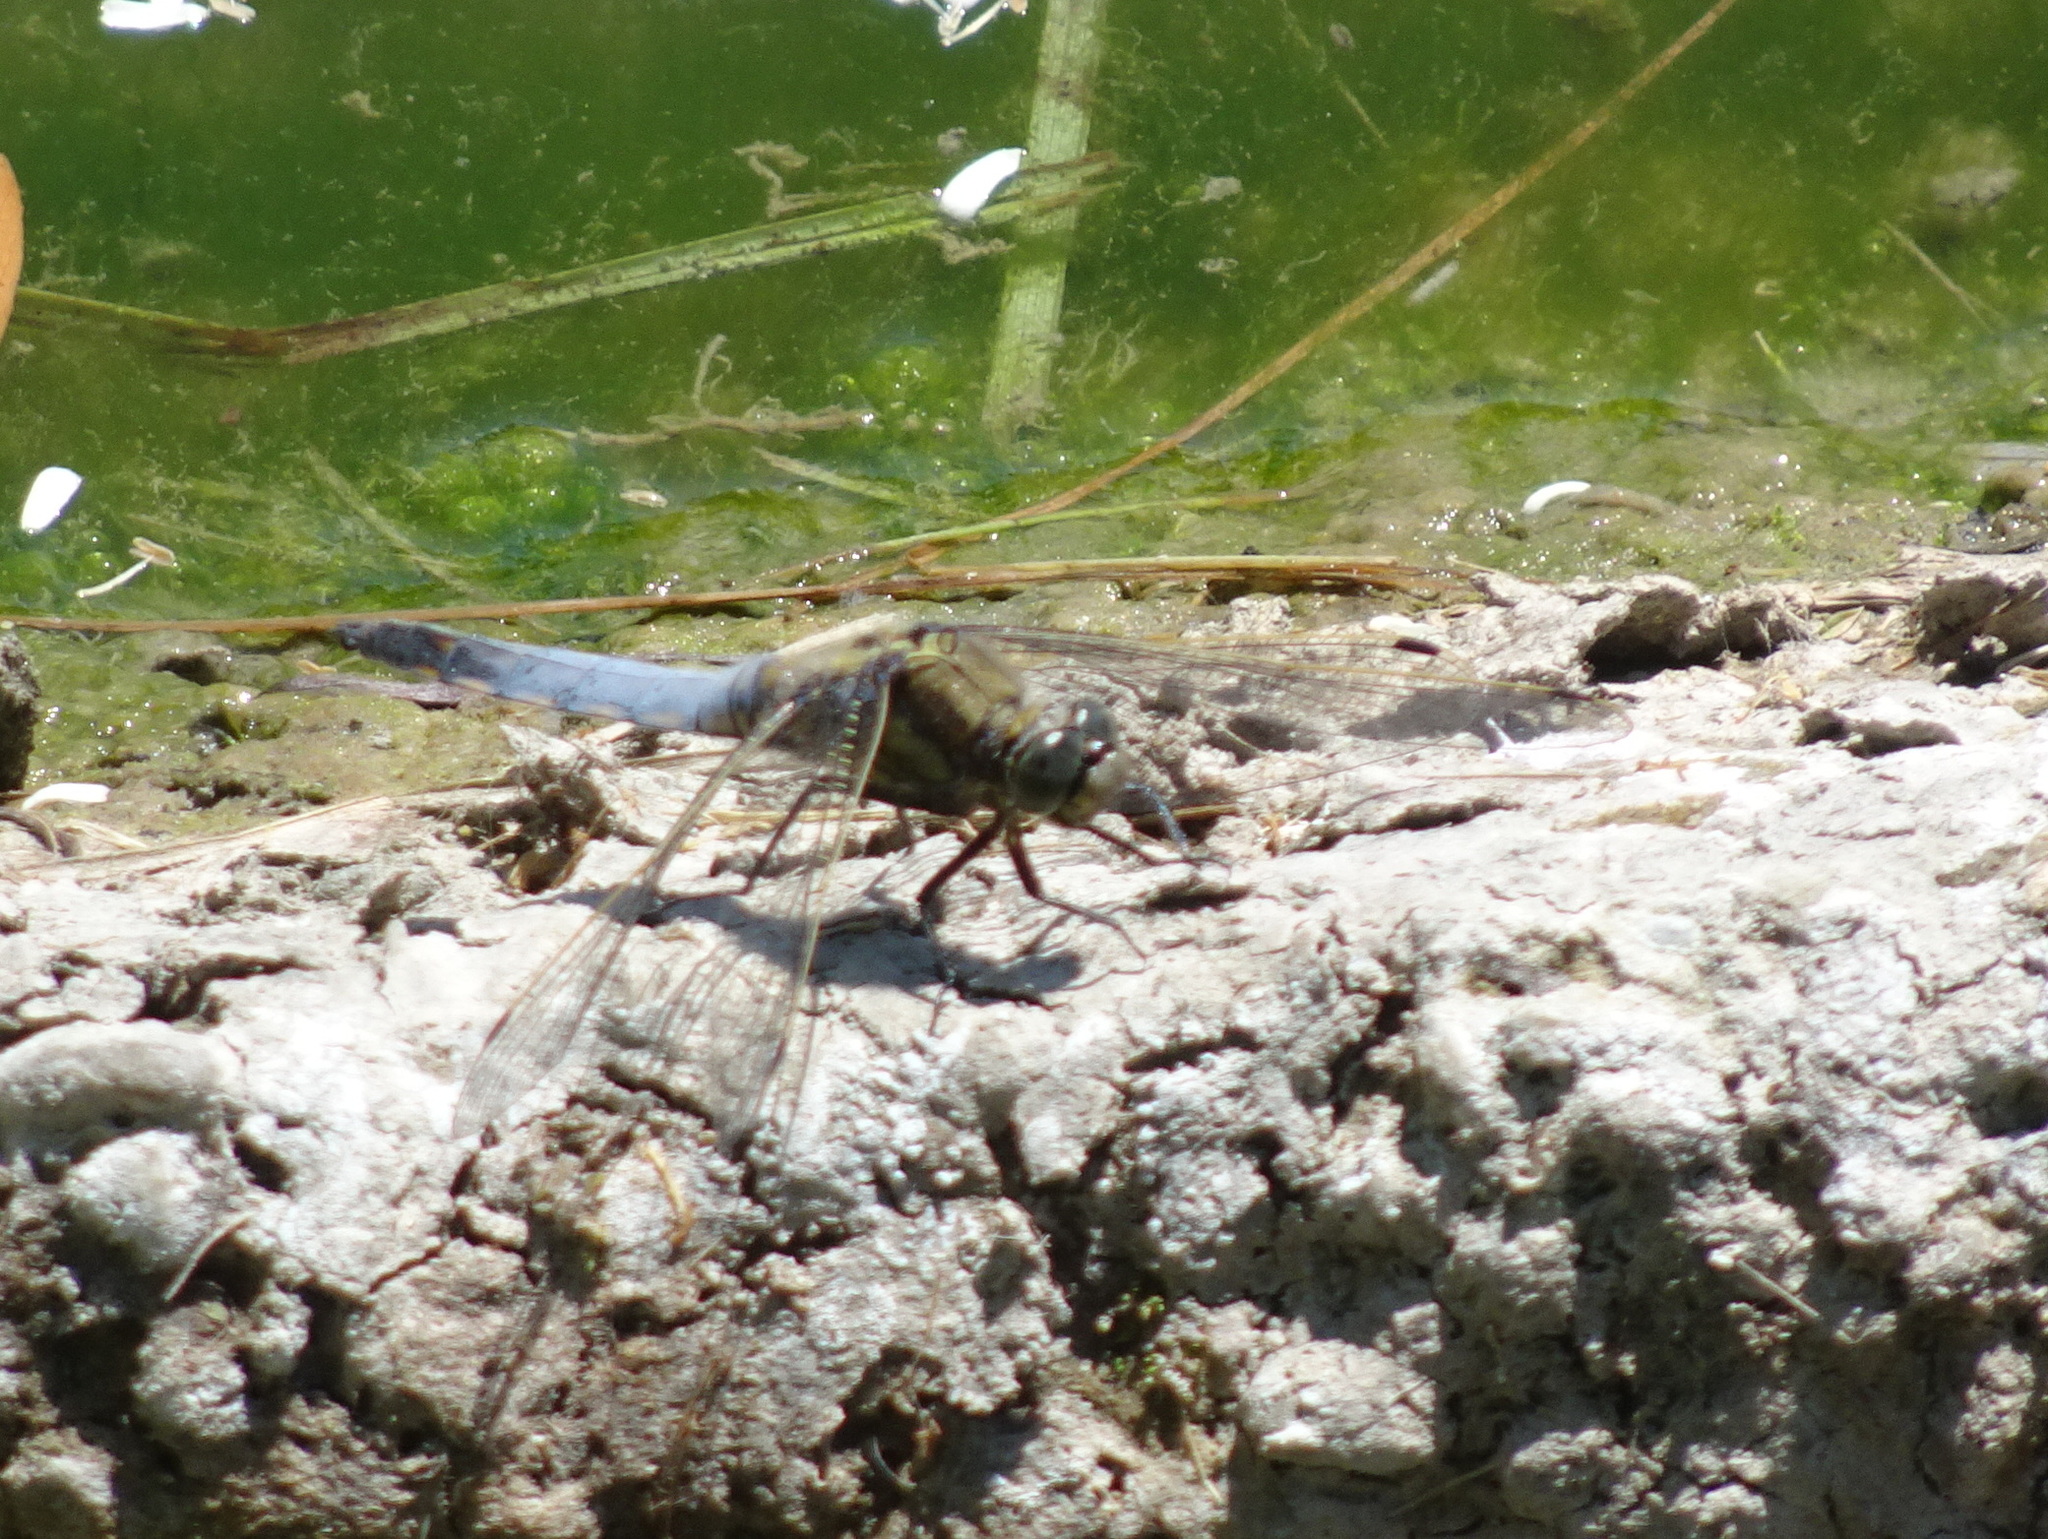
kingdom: Animalia
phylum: Arthropoda
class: Insecta
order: Odonata
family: Libellulidae
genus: Orthetrum
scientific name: Orthetrum cancellatum
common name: Black-tailed skimmer
